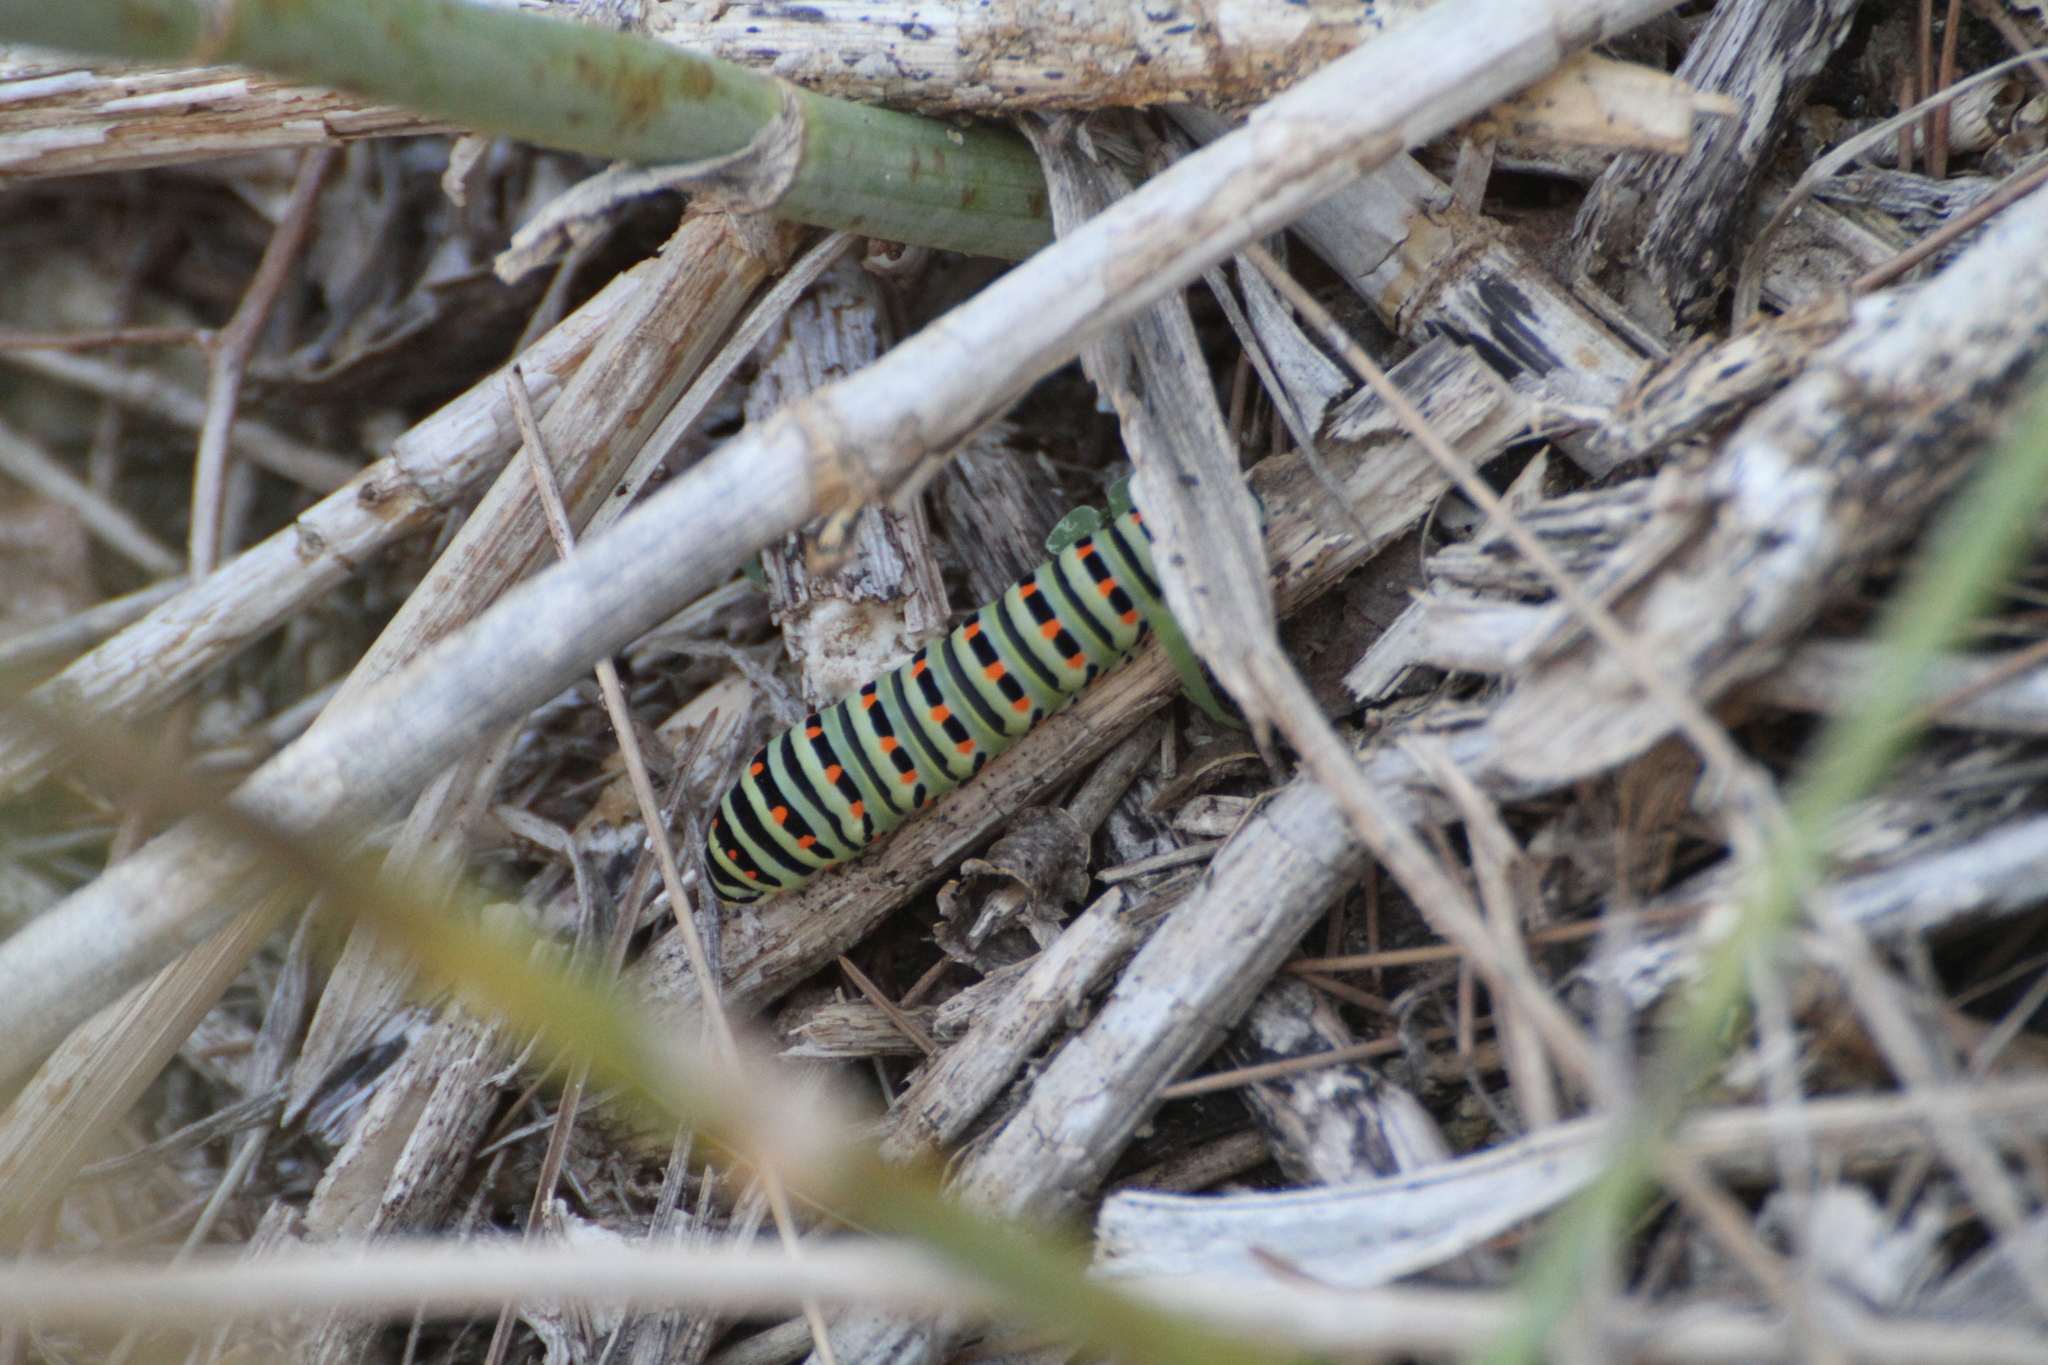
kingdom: Animalia
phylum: Arthropoda
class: Insecta
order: Lepidoptera
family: Papilionidae
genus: Papilio
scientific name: Papilio machaon
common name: Swallowtail
